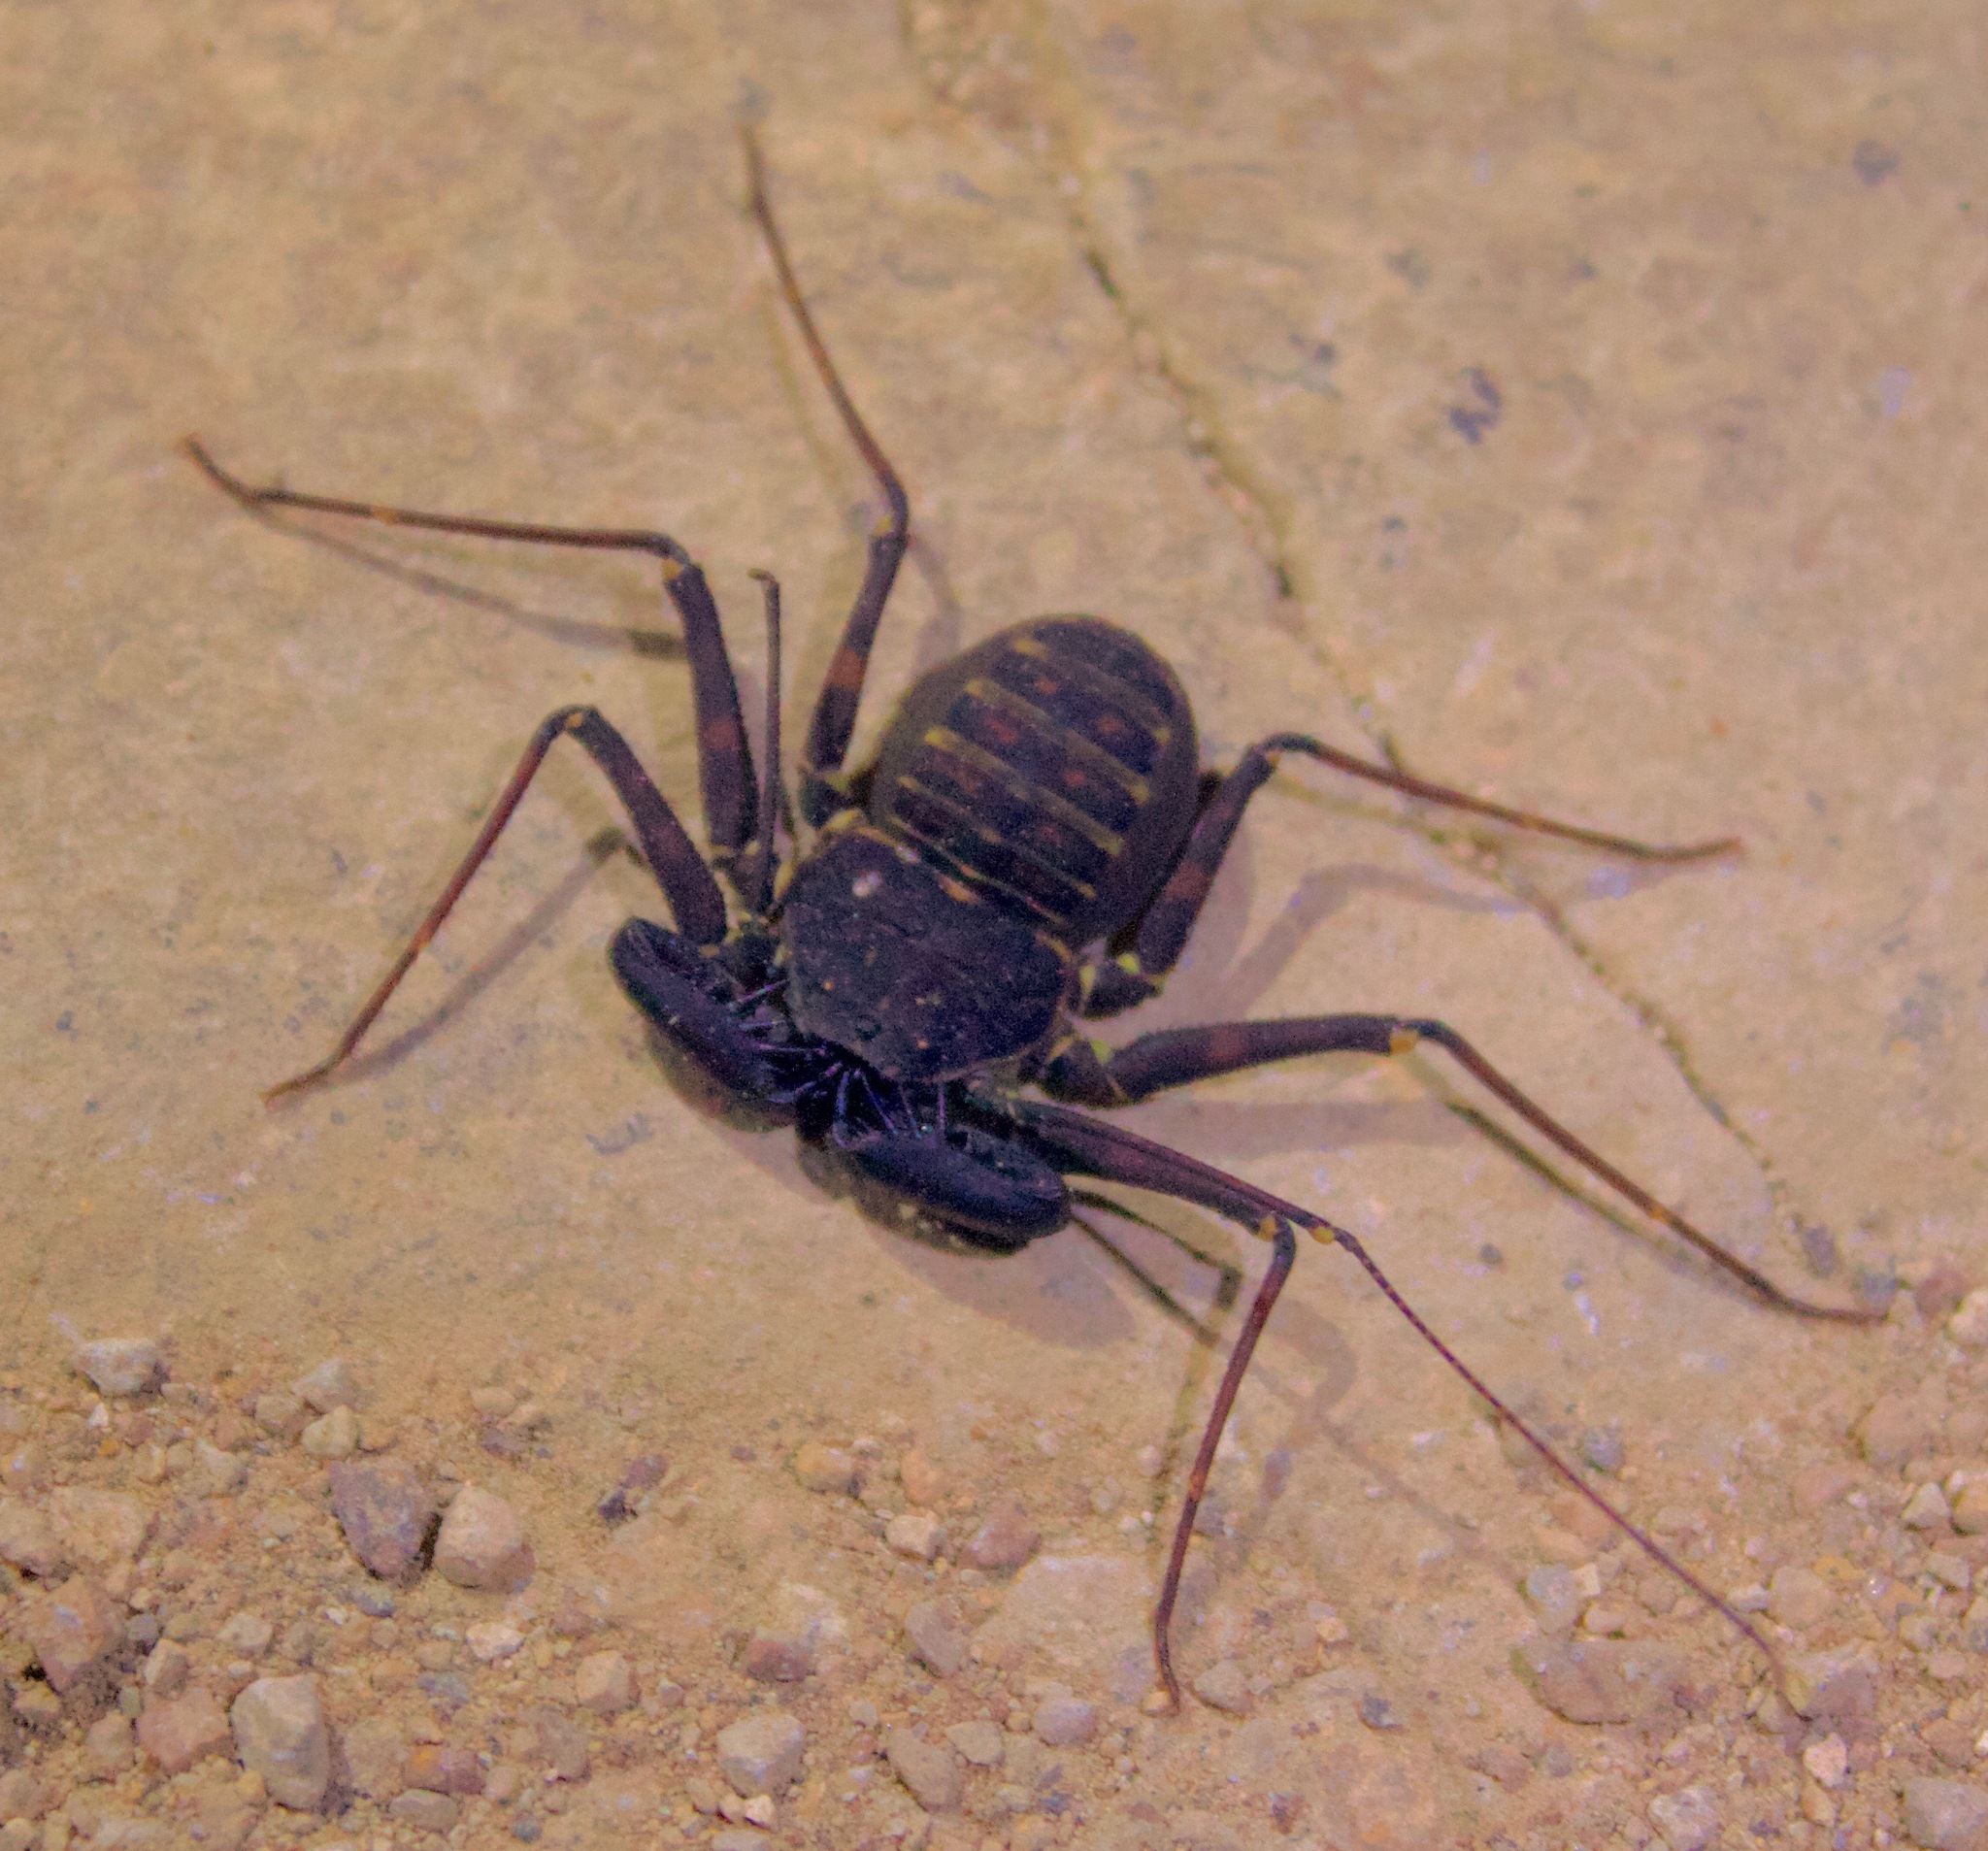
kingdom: Animalia
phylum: Arthropoda
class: Arachnida
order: Amblypygi
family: Phrynidae
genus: Phrynus
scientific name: Phrynus whitei
